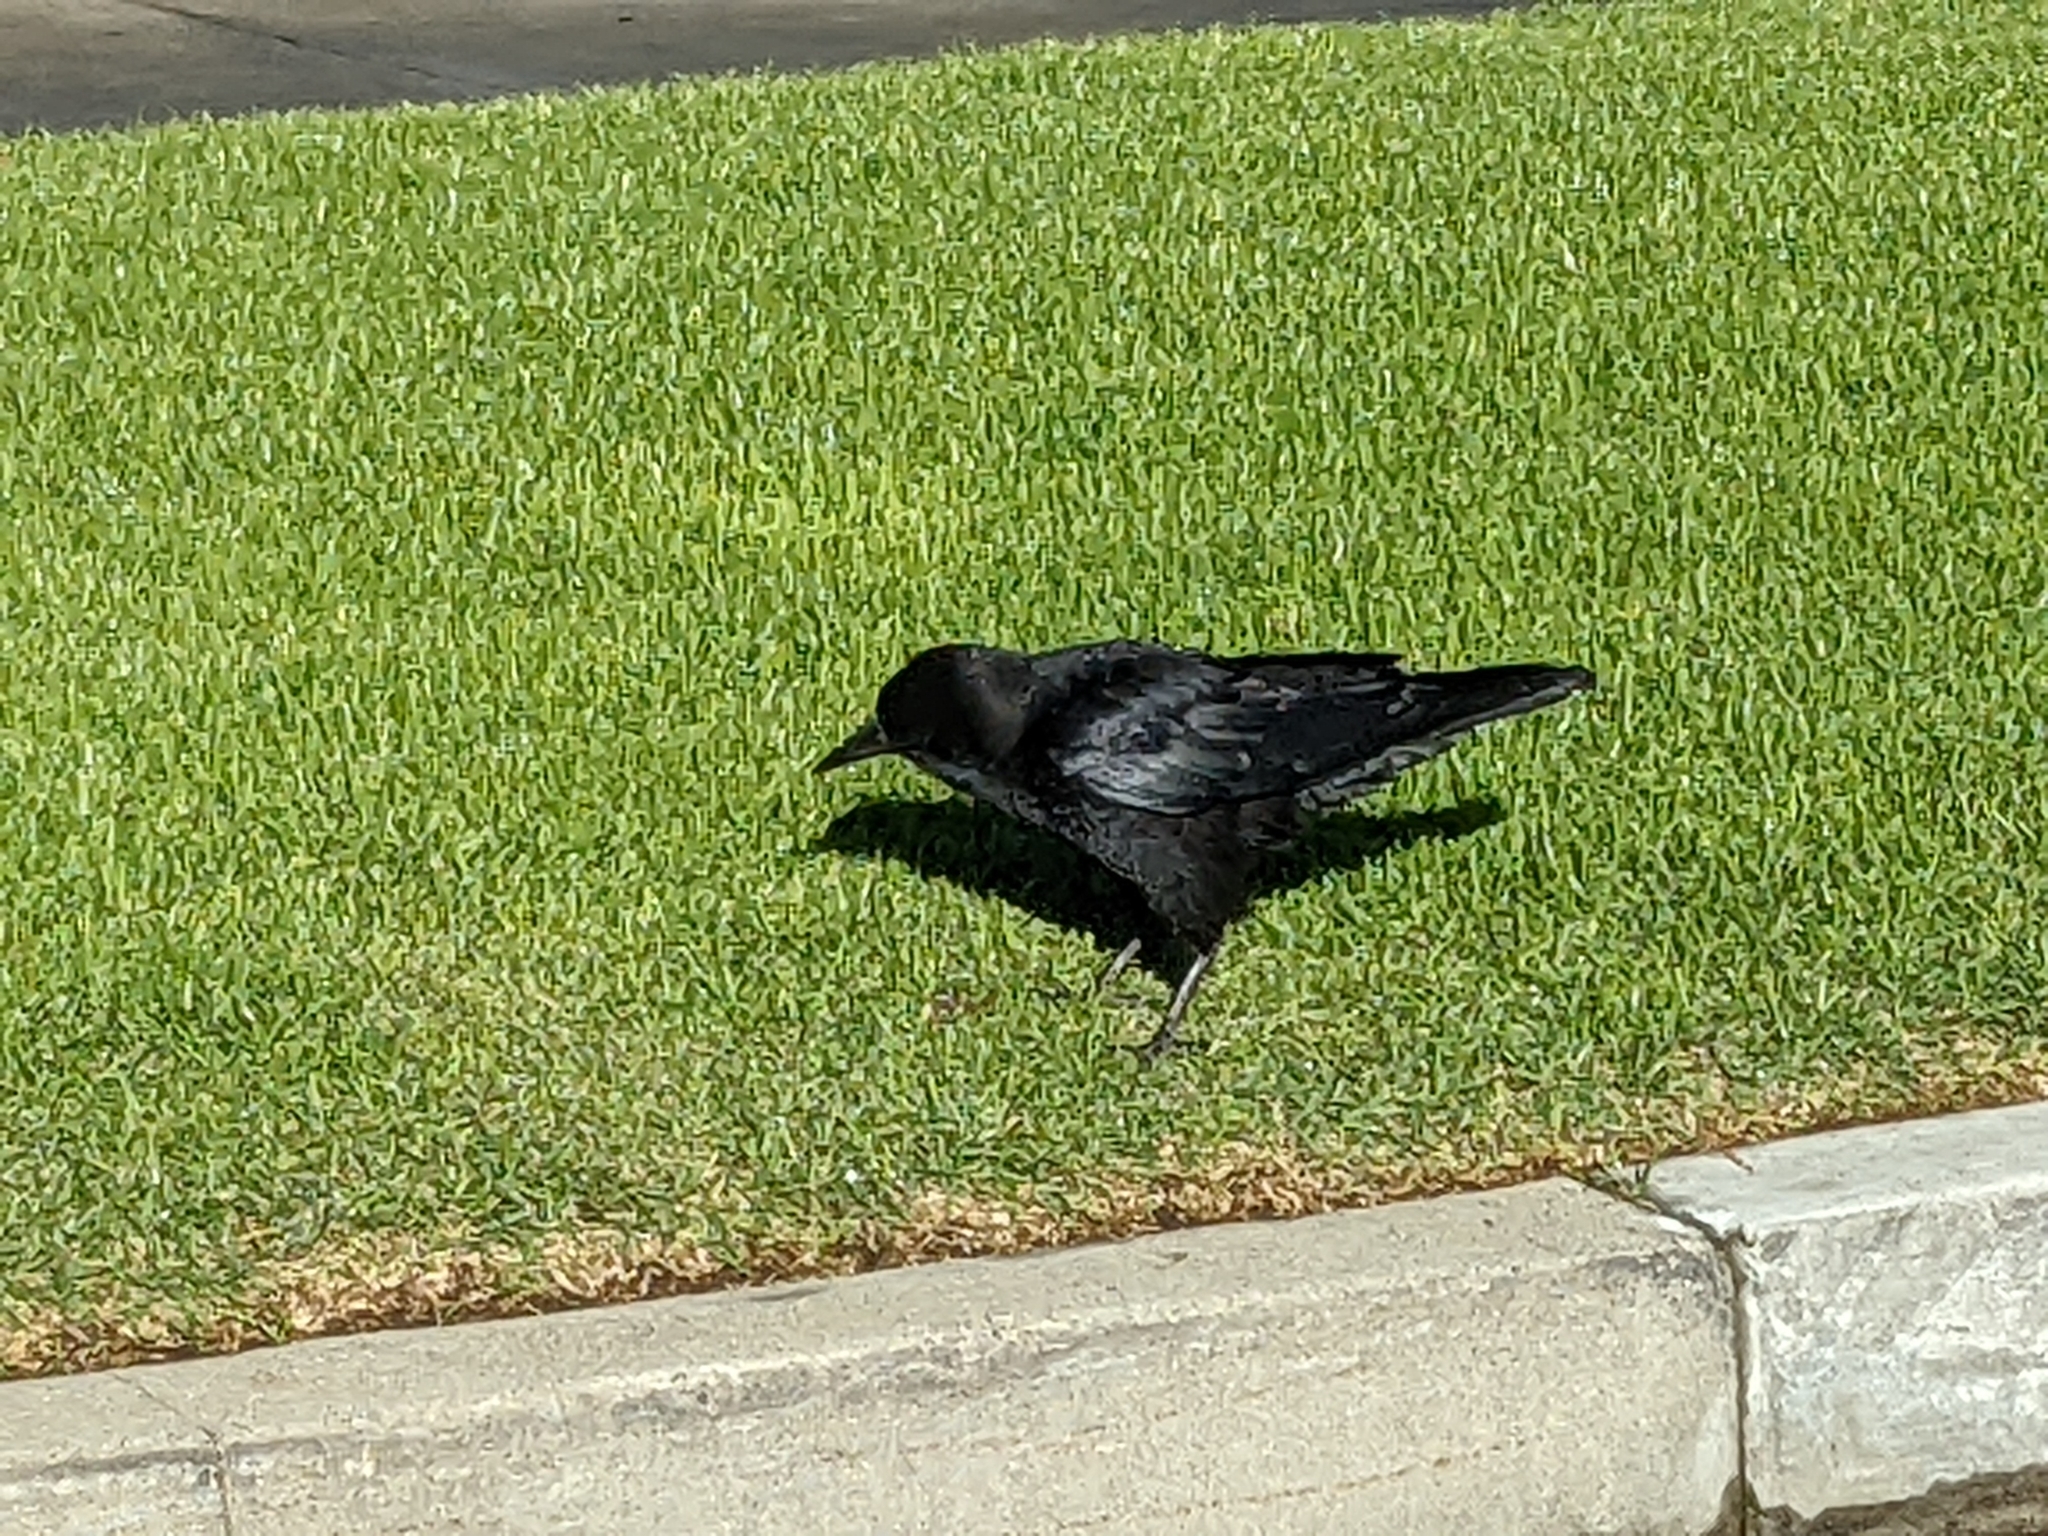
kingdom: Animalia
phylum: Chordata
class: Aves
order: Passeriformes
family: Corvidae
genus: Corvus
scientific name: Corvus brachyrhynchos
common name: American crow
